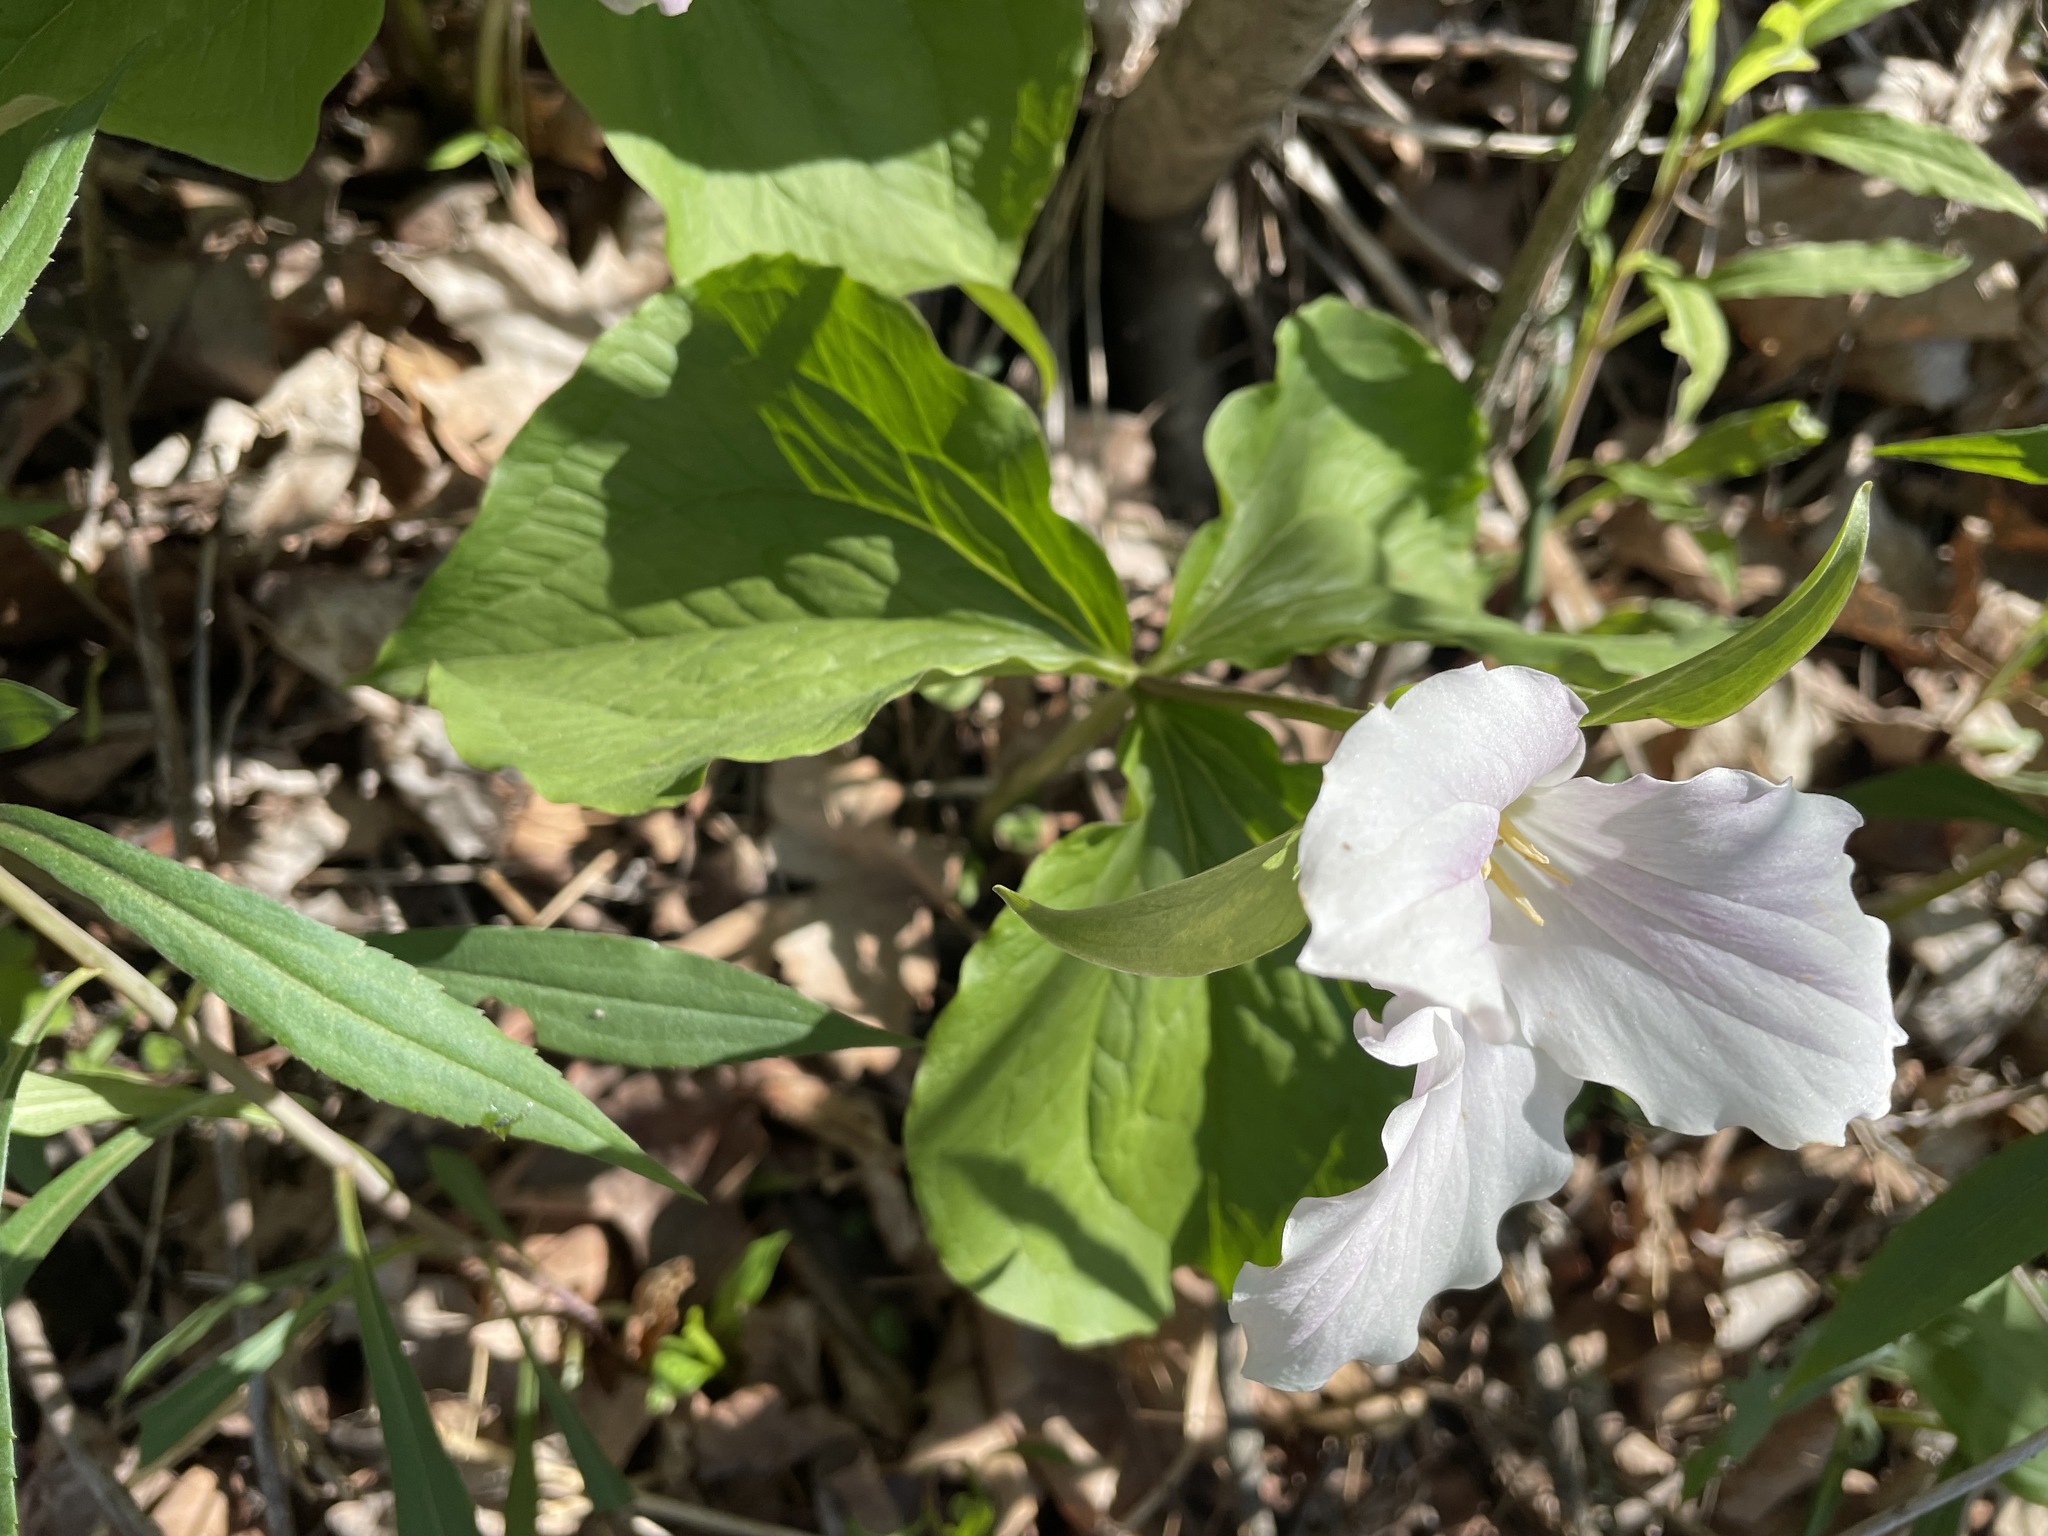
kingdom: Plantae
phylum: Tracheophyta
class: Liliopsida
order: Liliales
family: Melanthiaceae
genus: Trillium
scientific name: Trillium grandiflorum
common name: Great white trillium
